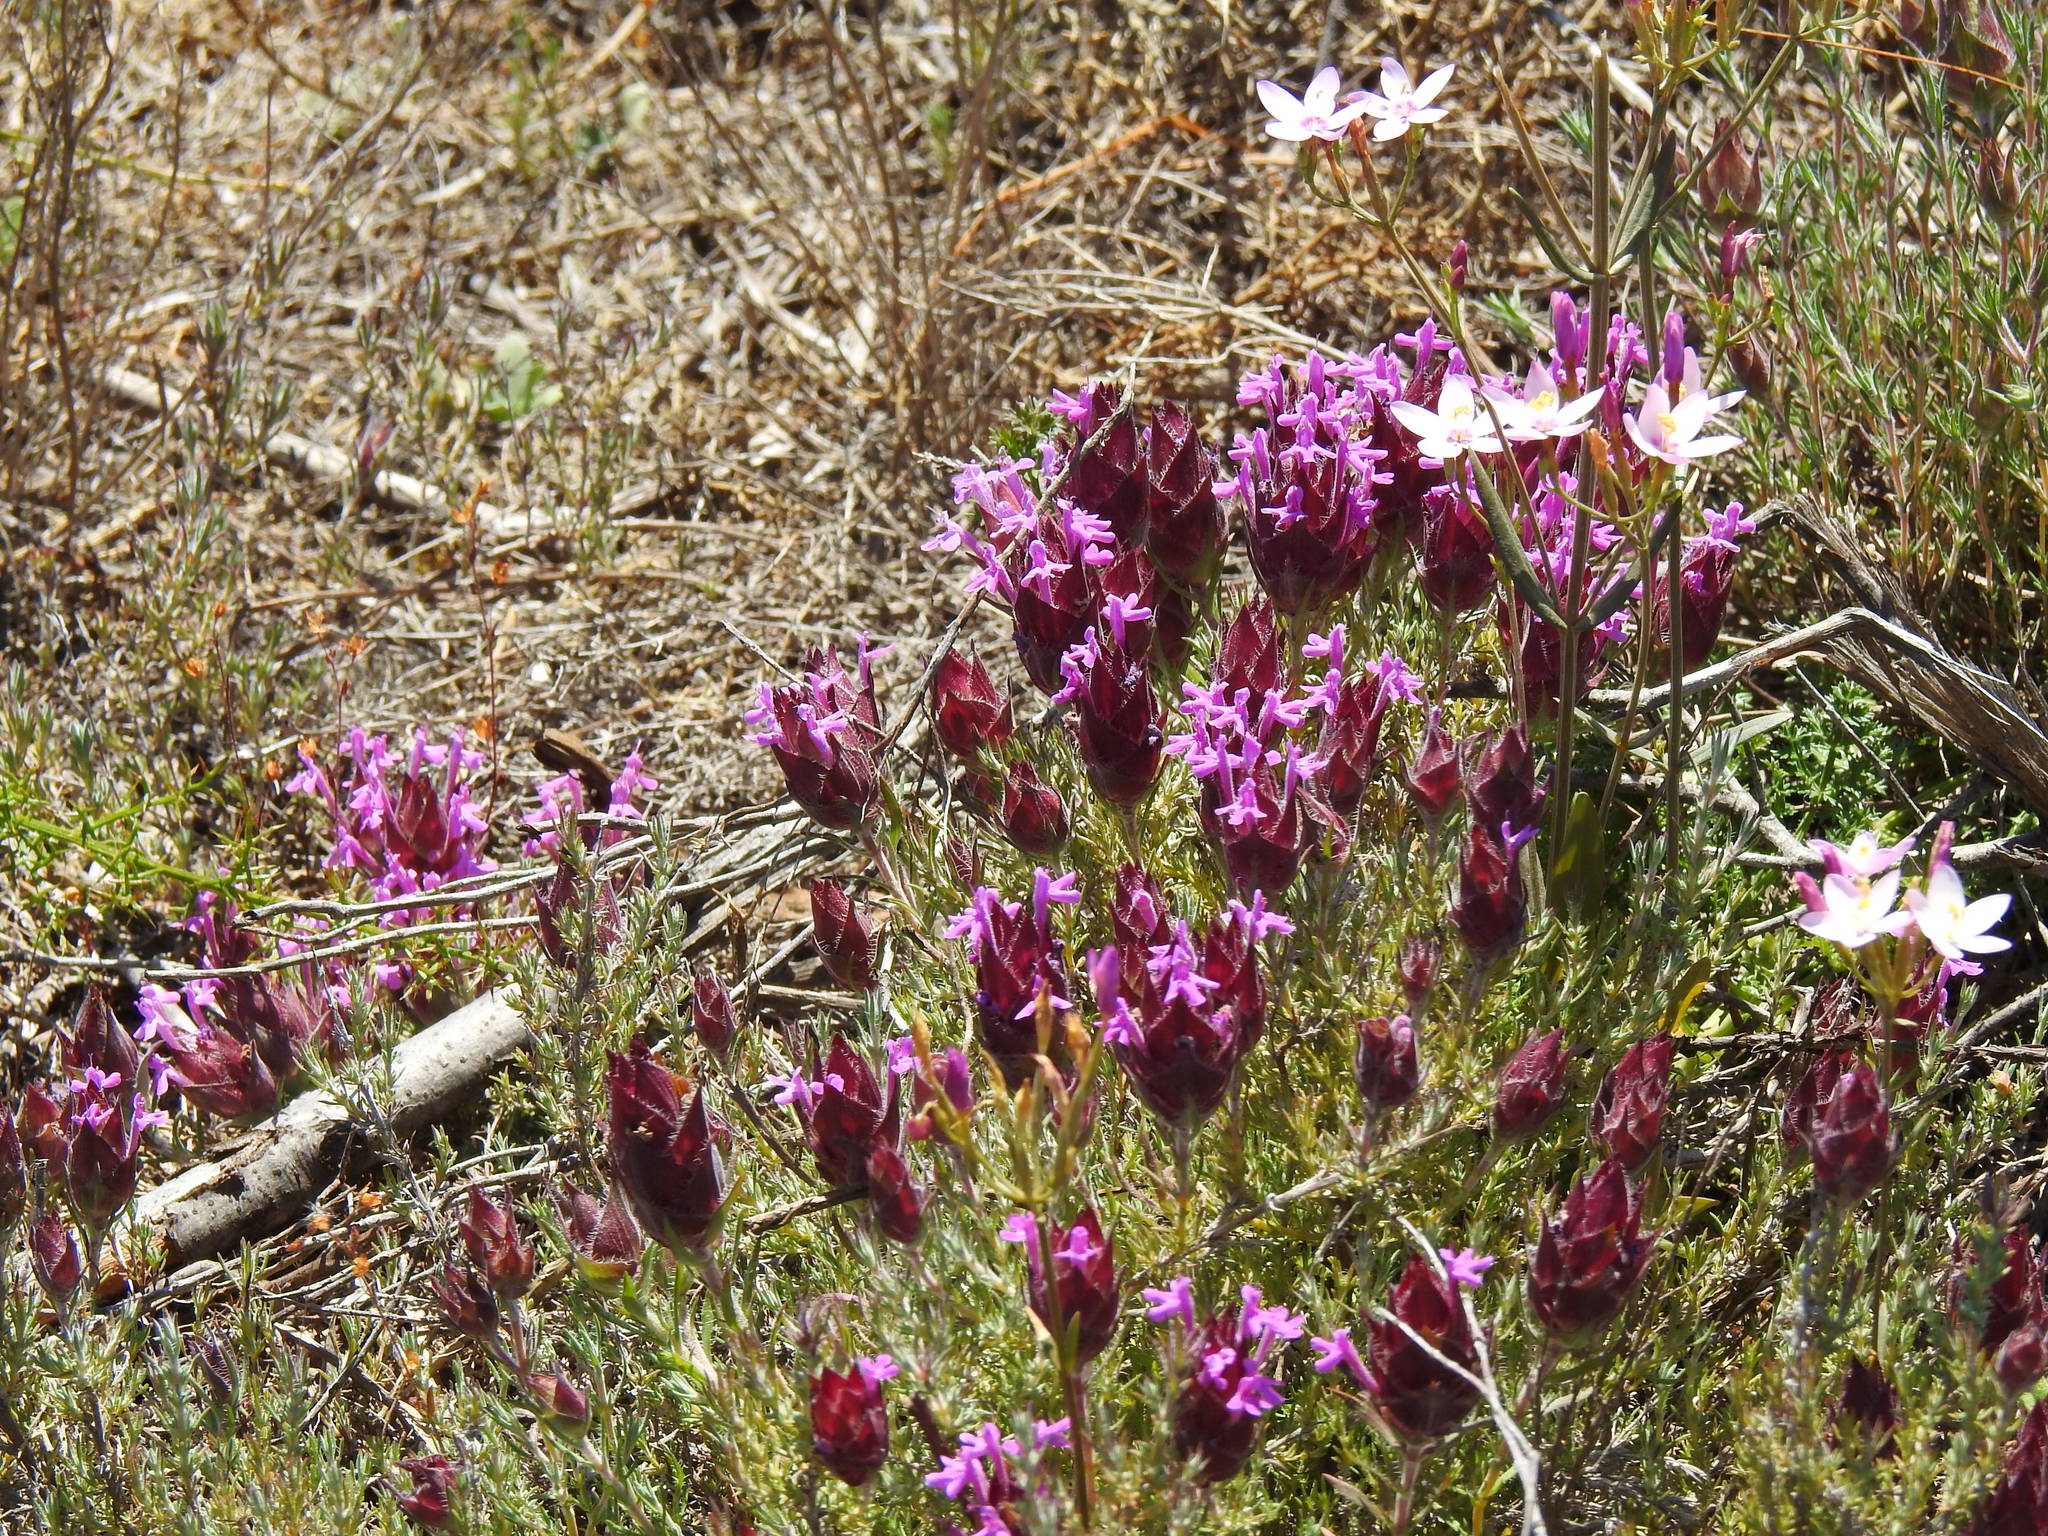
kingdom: Plantae
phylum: Tracheophyta
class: Magnoliopsida
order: Lamiales
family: Lamiaceae
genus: Thymus
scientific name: Thymus lotocephalus
